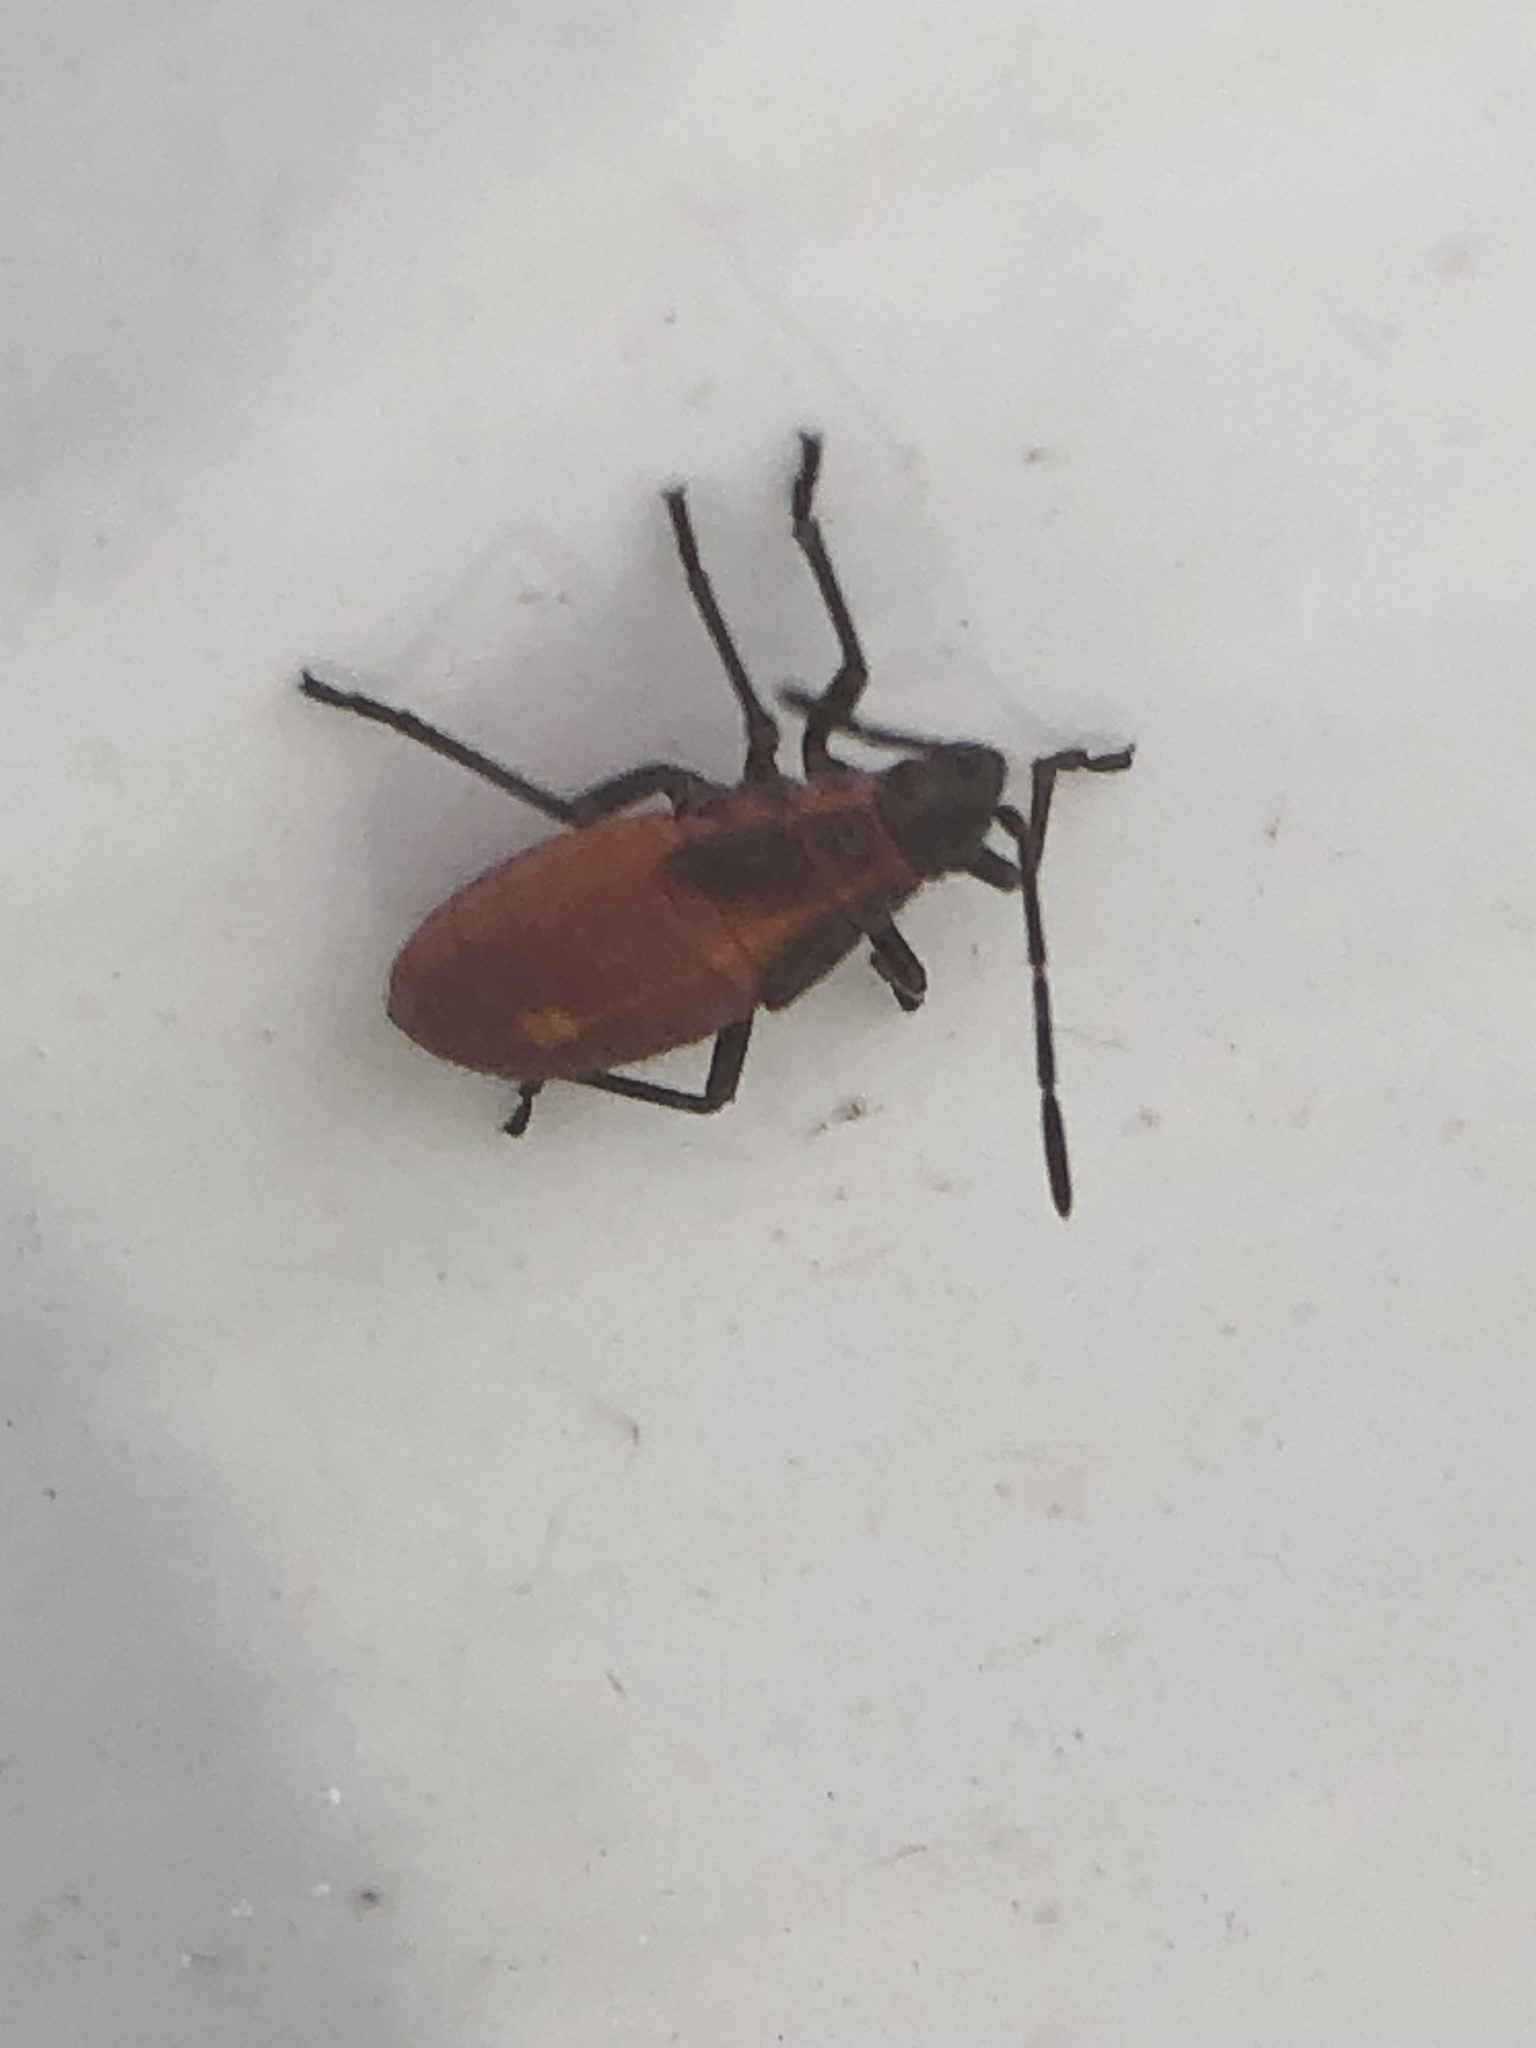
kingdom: Animalia
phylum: Arthropoda
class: Insecta
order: Hemiptera
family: Rhopalidae
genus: Boisea
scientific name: Boisea trivittata
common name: Boxelder bug
